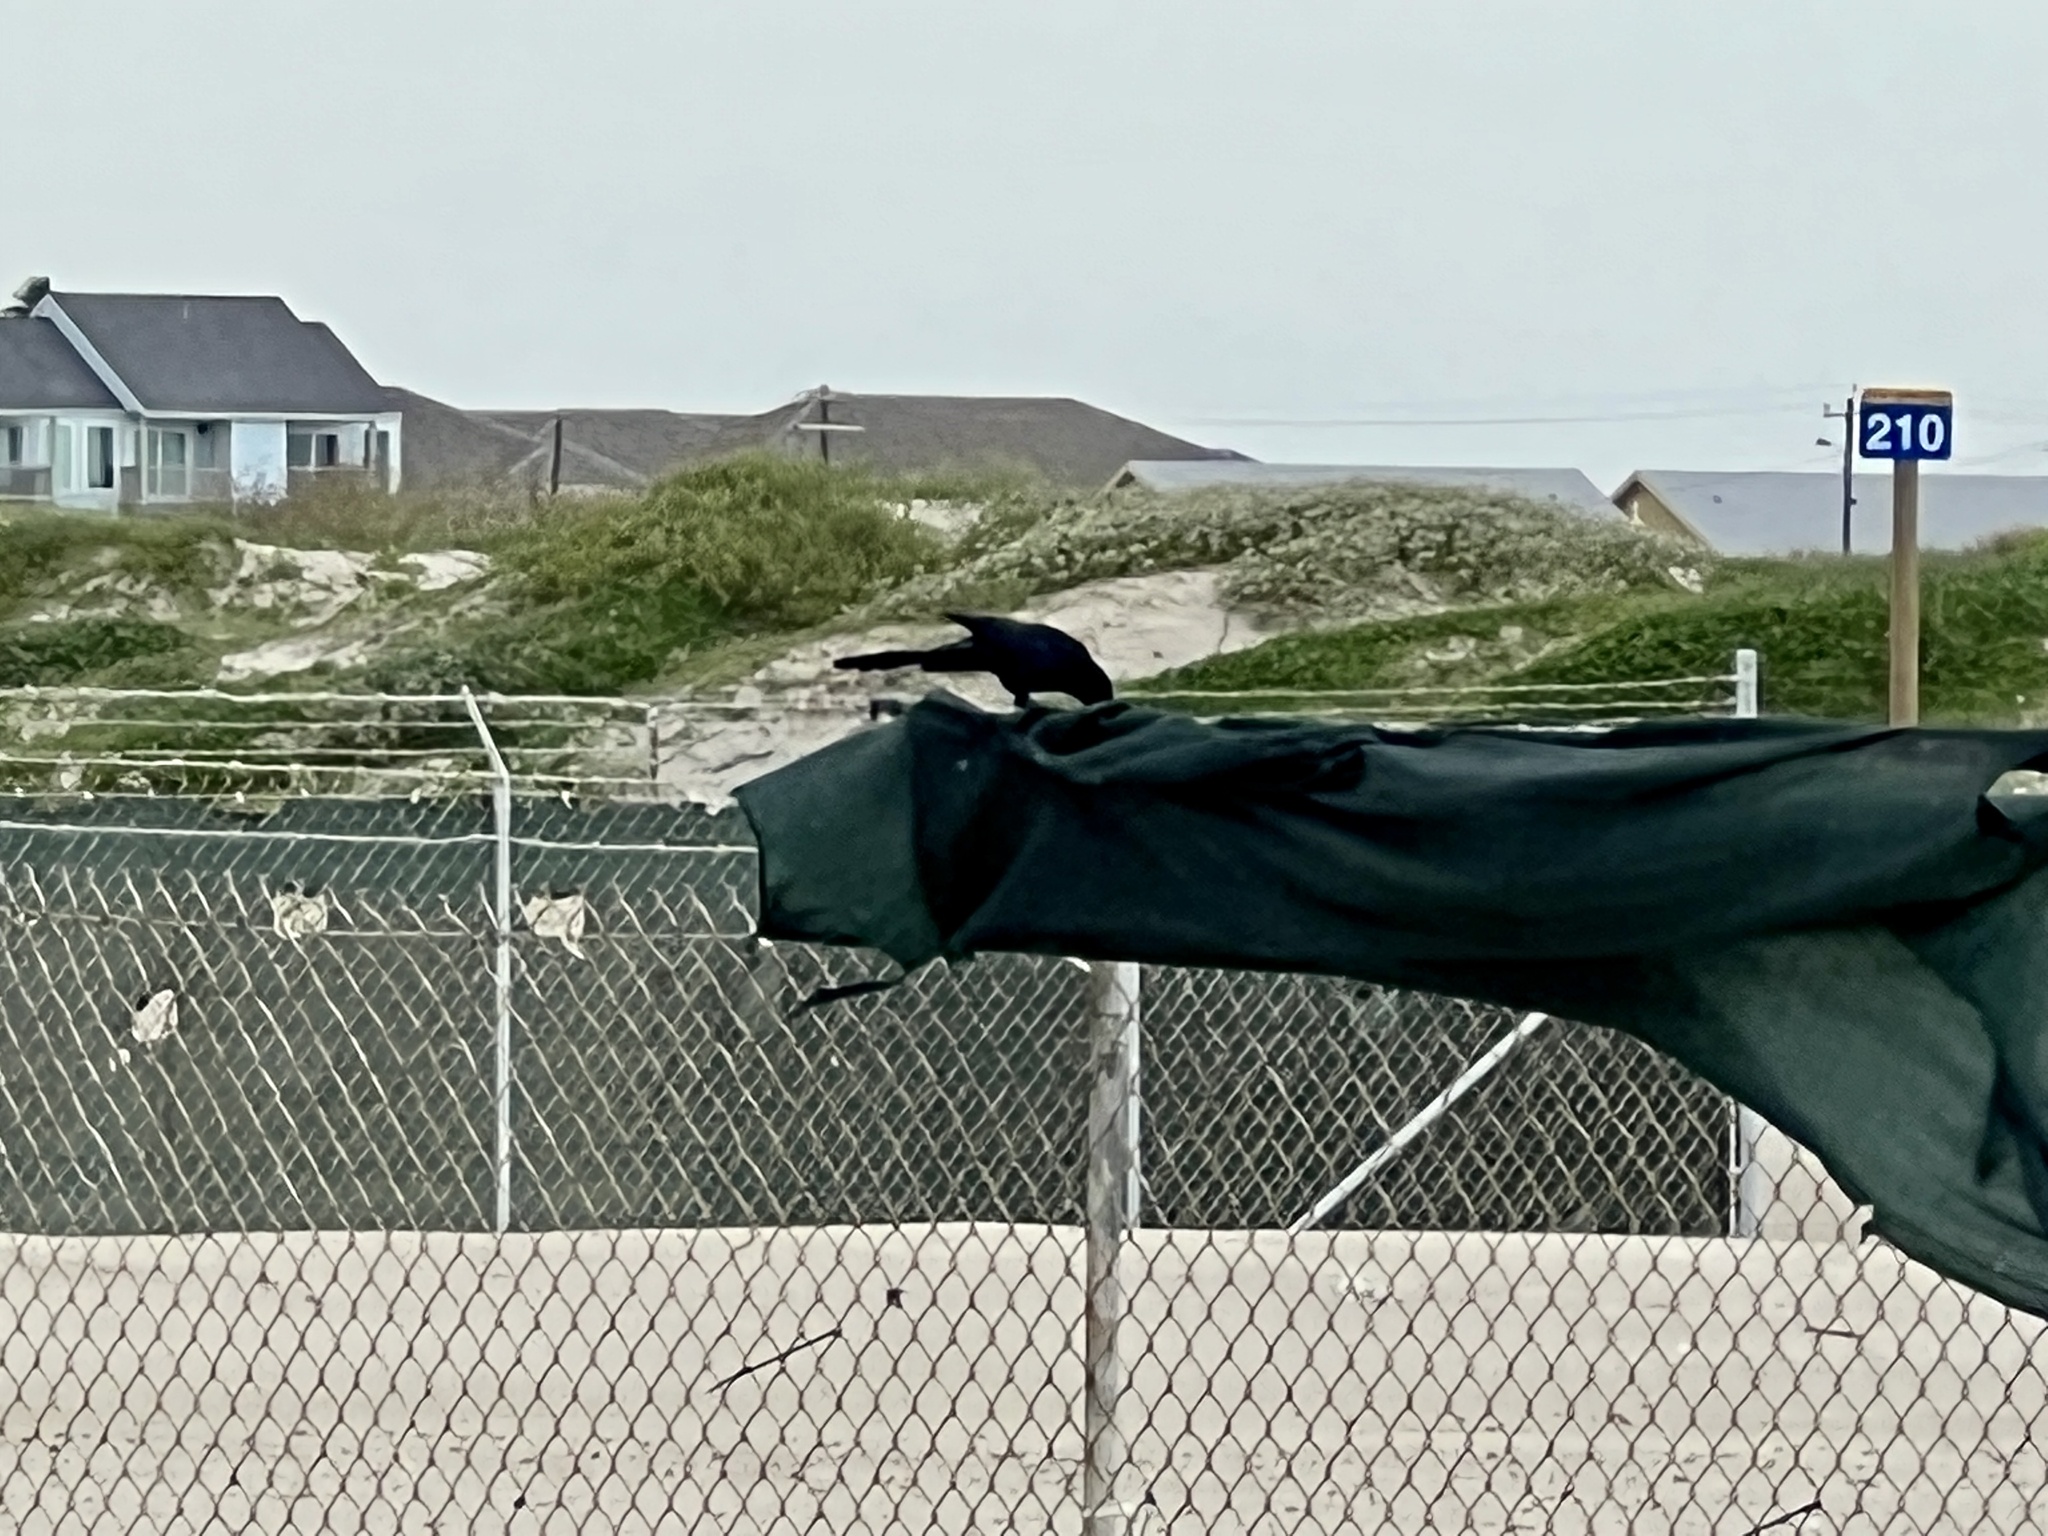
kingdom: Animalia
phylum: Chordata
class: Aves
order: Passeriformes
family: Icteridae
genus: Quiscalus
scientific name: Quiscalus mexicanus
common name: Great-tailed grackle
